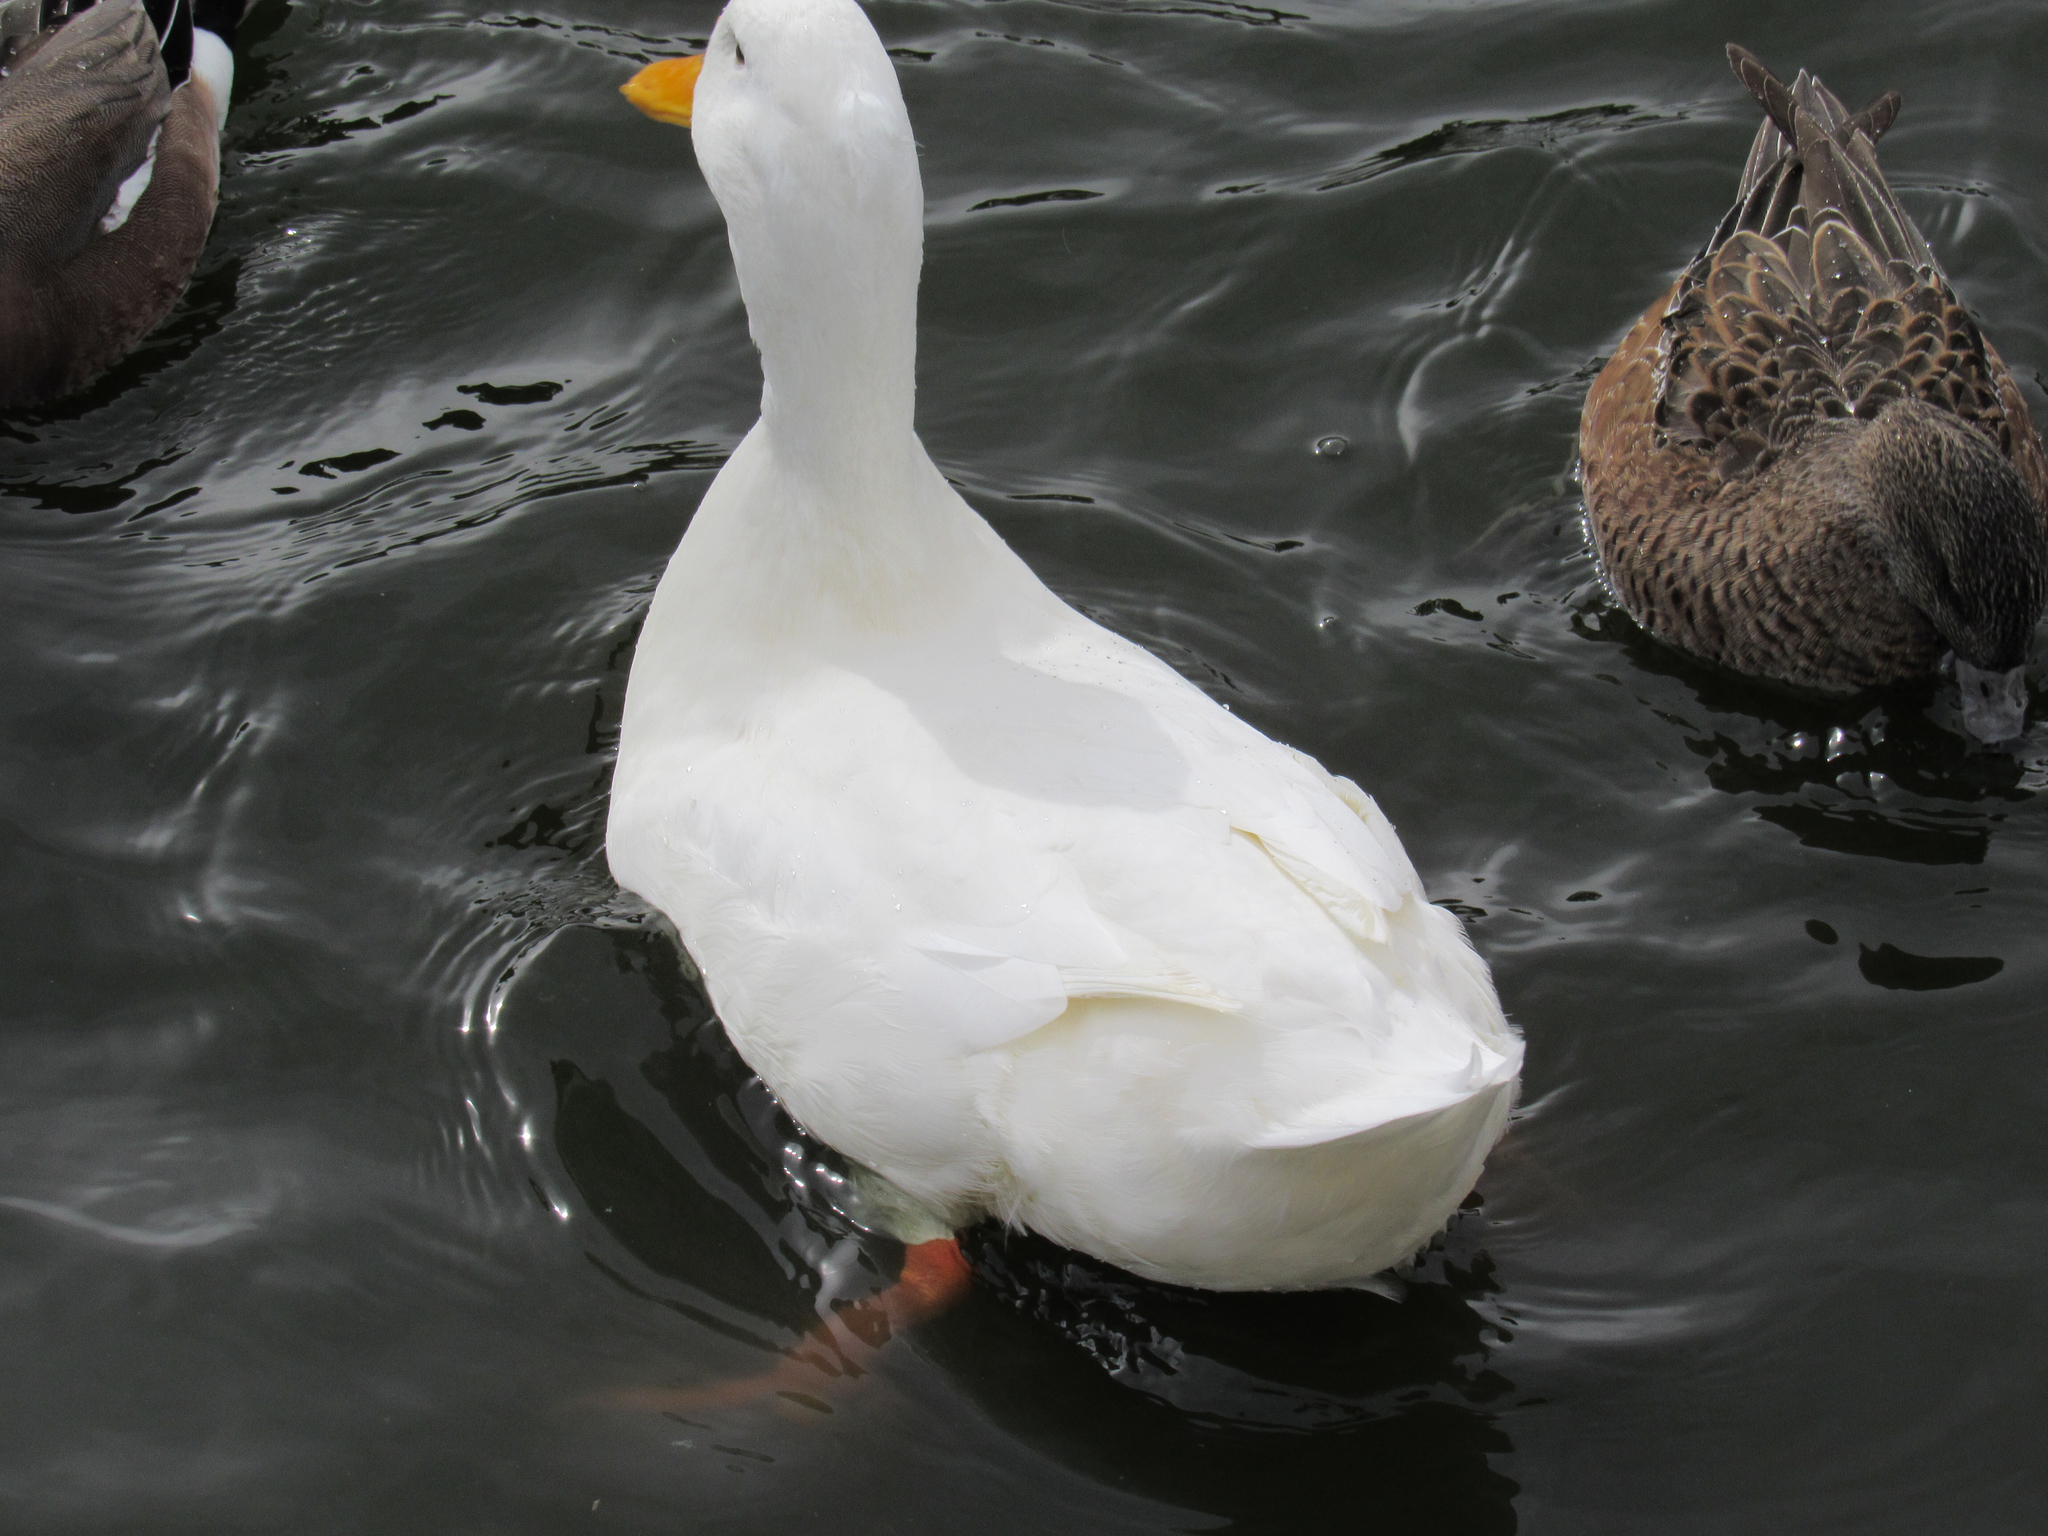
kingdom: Animalia
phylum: Chordata
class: Aves
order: Anseriformes
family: Anatidae
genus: Anas
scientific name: Anas platyrhynchos
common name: Mallard
